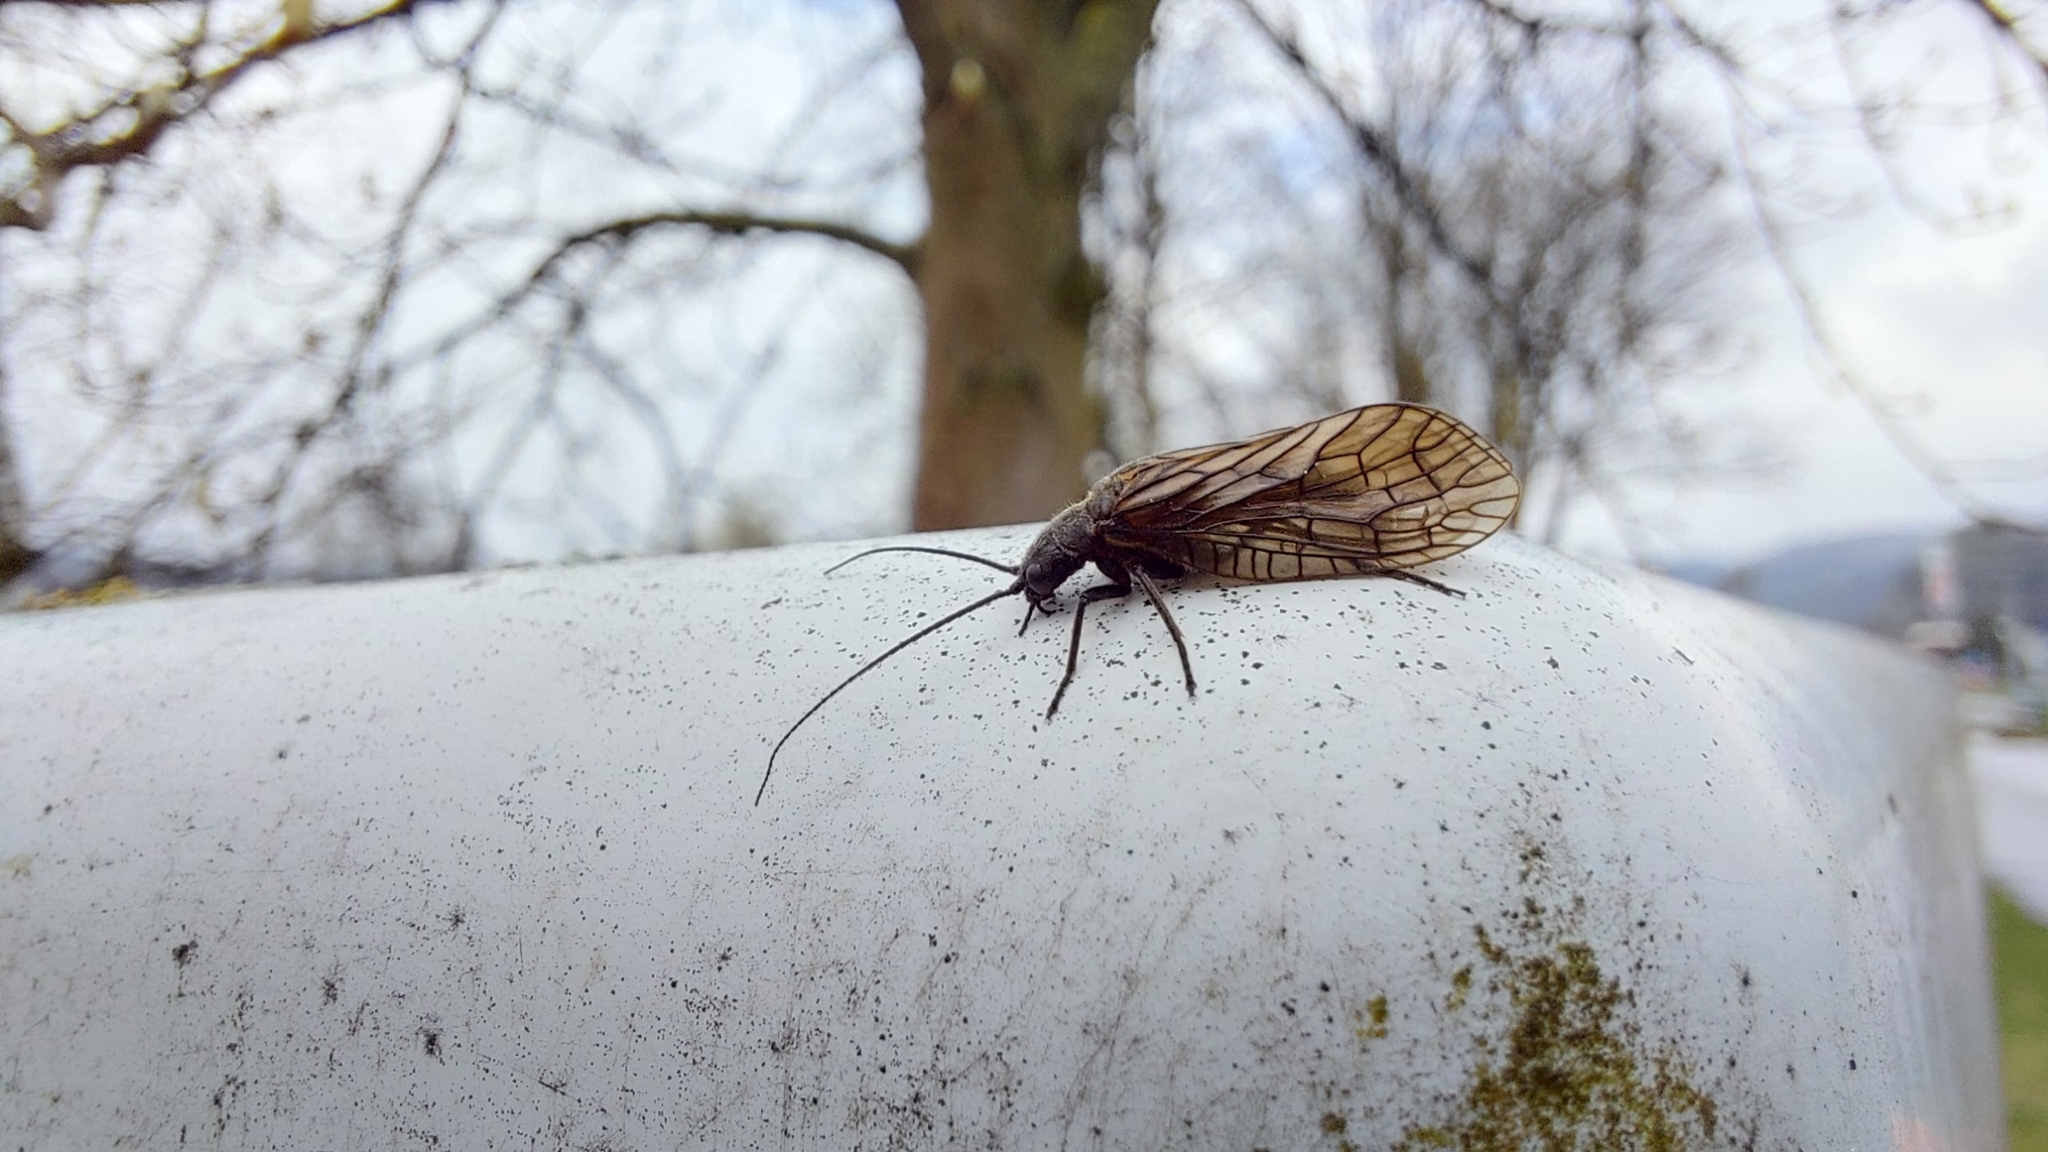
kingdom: Animalia
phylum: Arthropoda
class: Insecta
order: Megaloptera
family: Sialidae
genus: Sialis
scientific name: Sialis
